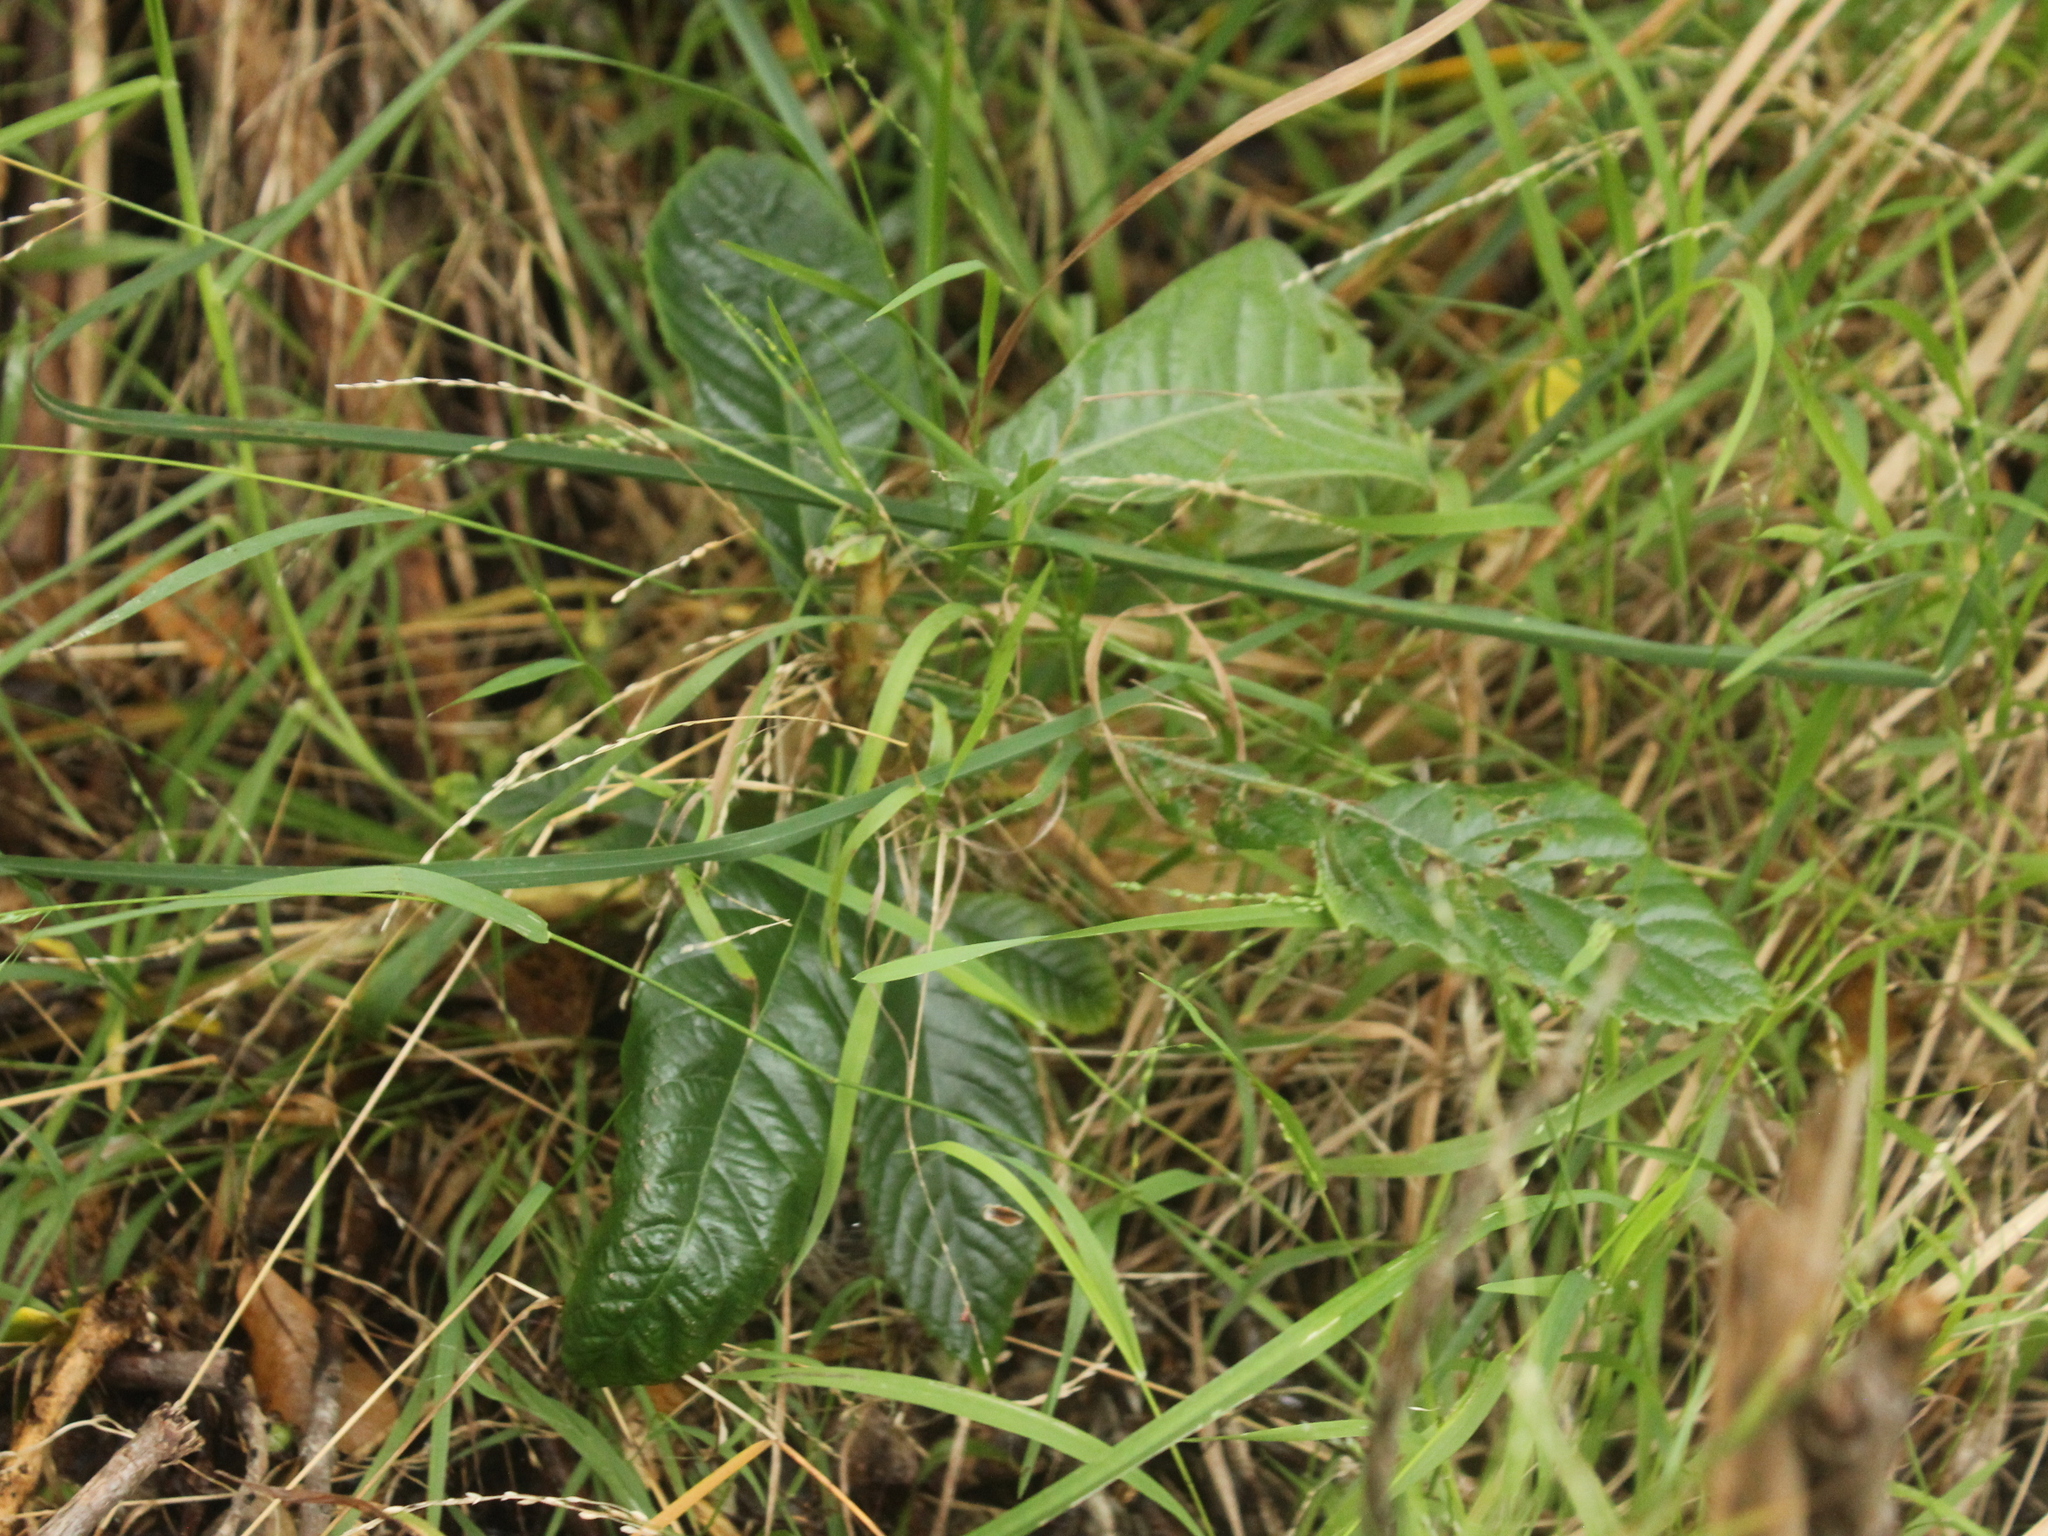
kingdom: Plantae
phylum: Tracheophyta
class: Magnoliopsida
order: Rosales
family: Rosaceae
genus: Rhaphiolepis
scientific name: Rhaphiolepis bibas
